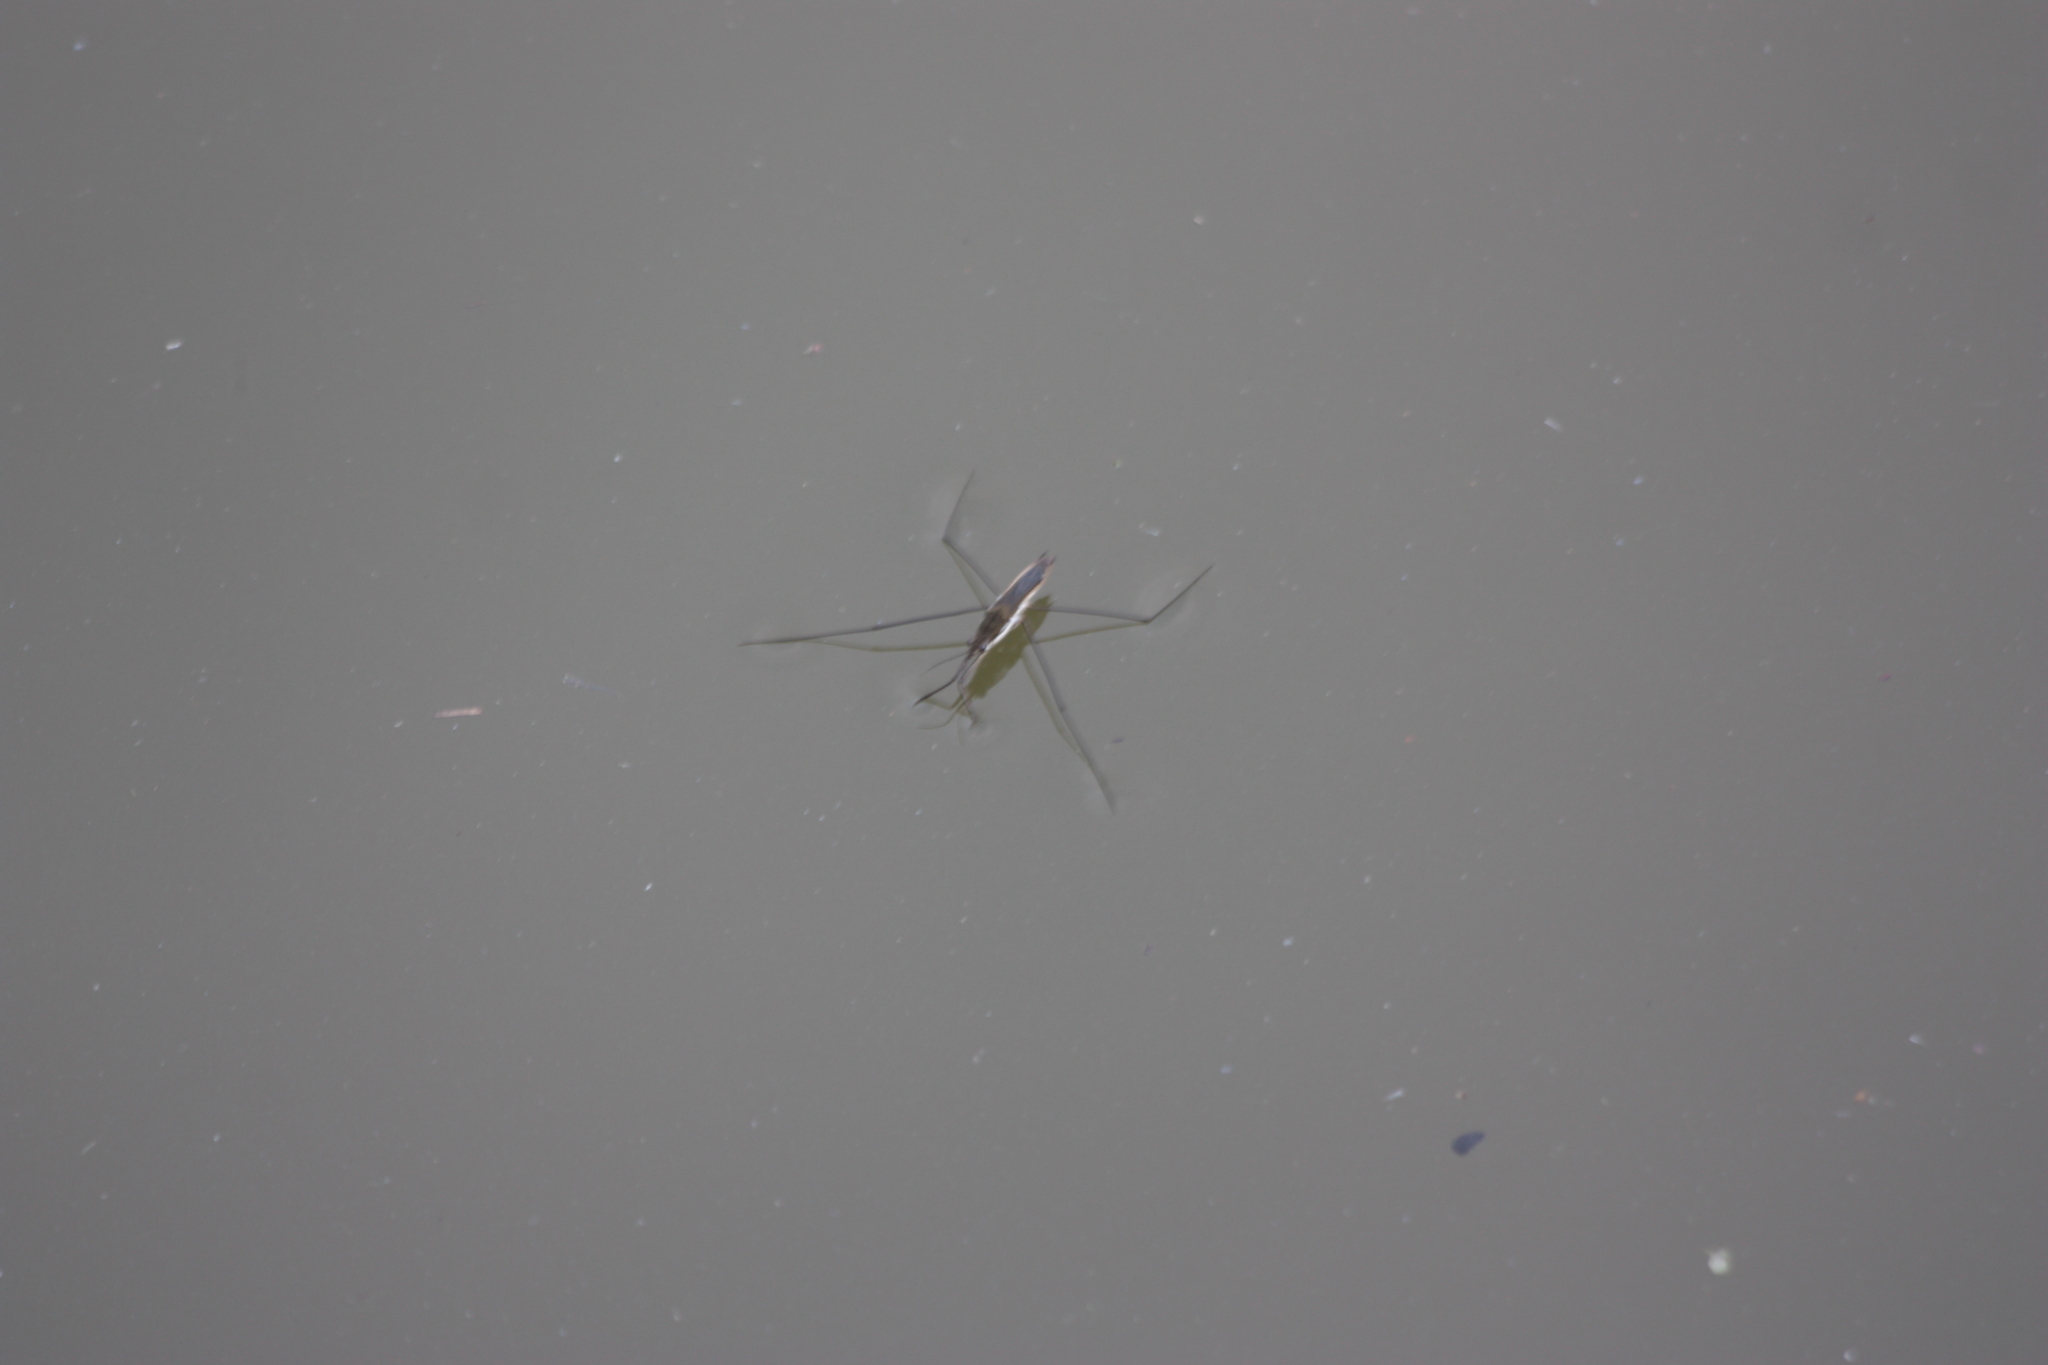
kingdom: Animalia
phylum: Arthropoda
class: Insecta
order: Hemiptera
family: Gerridae
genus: Aquarius
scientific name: Aquarius paludum
